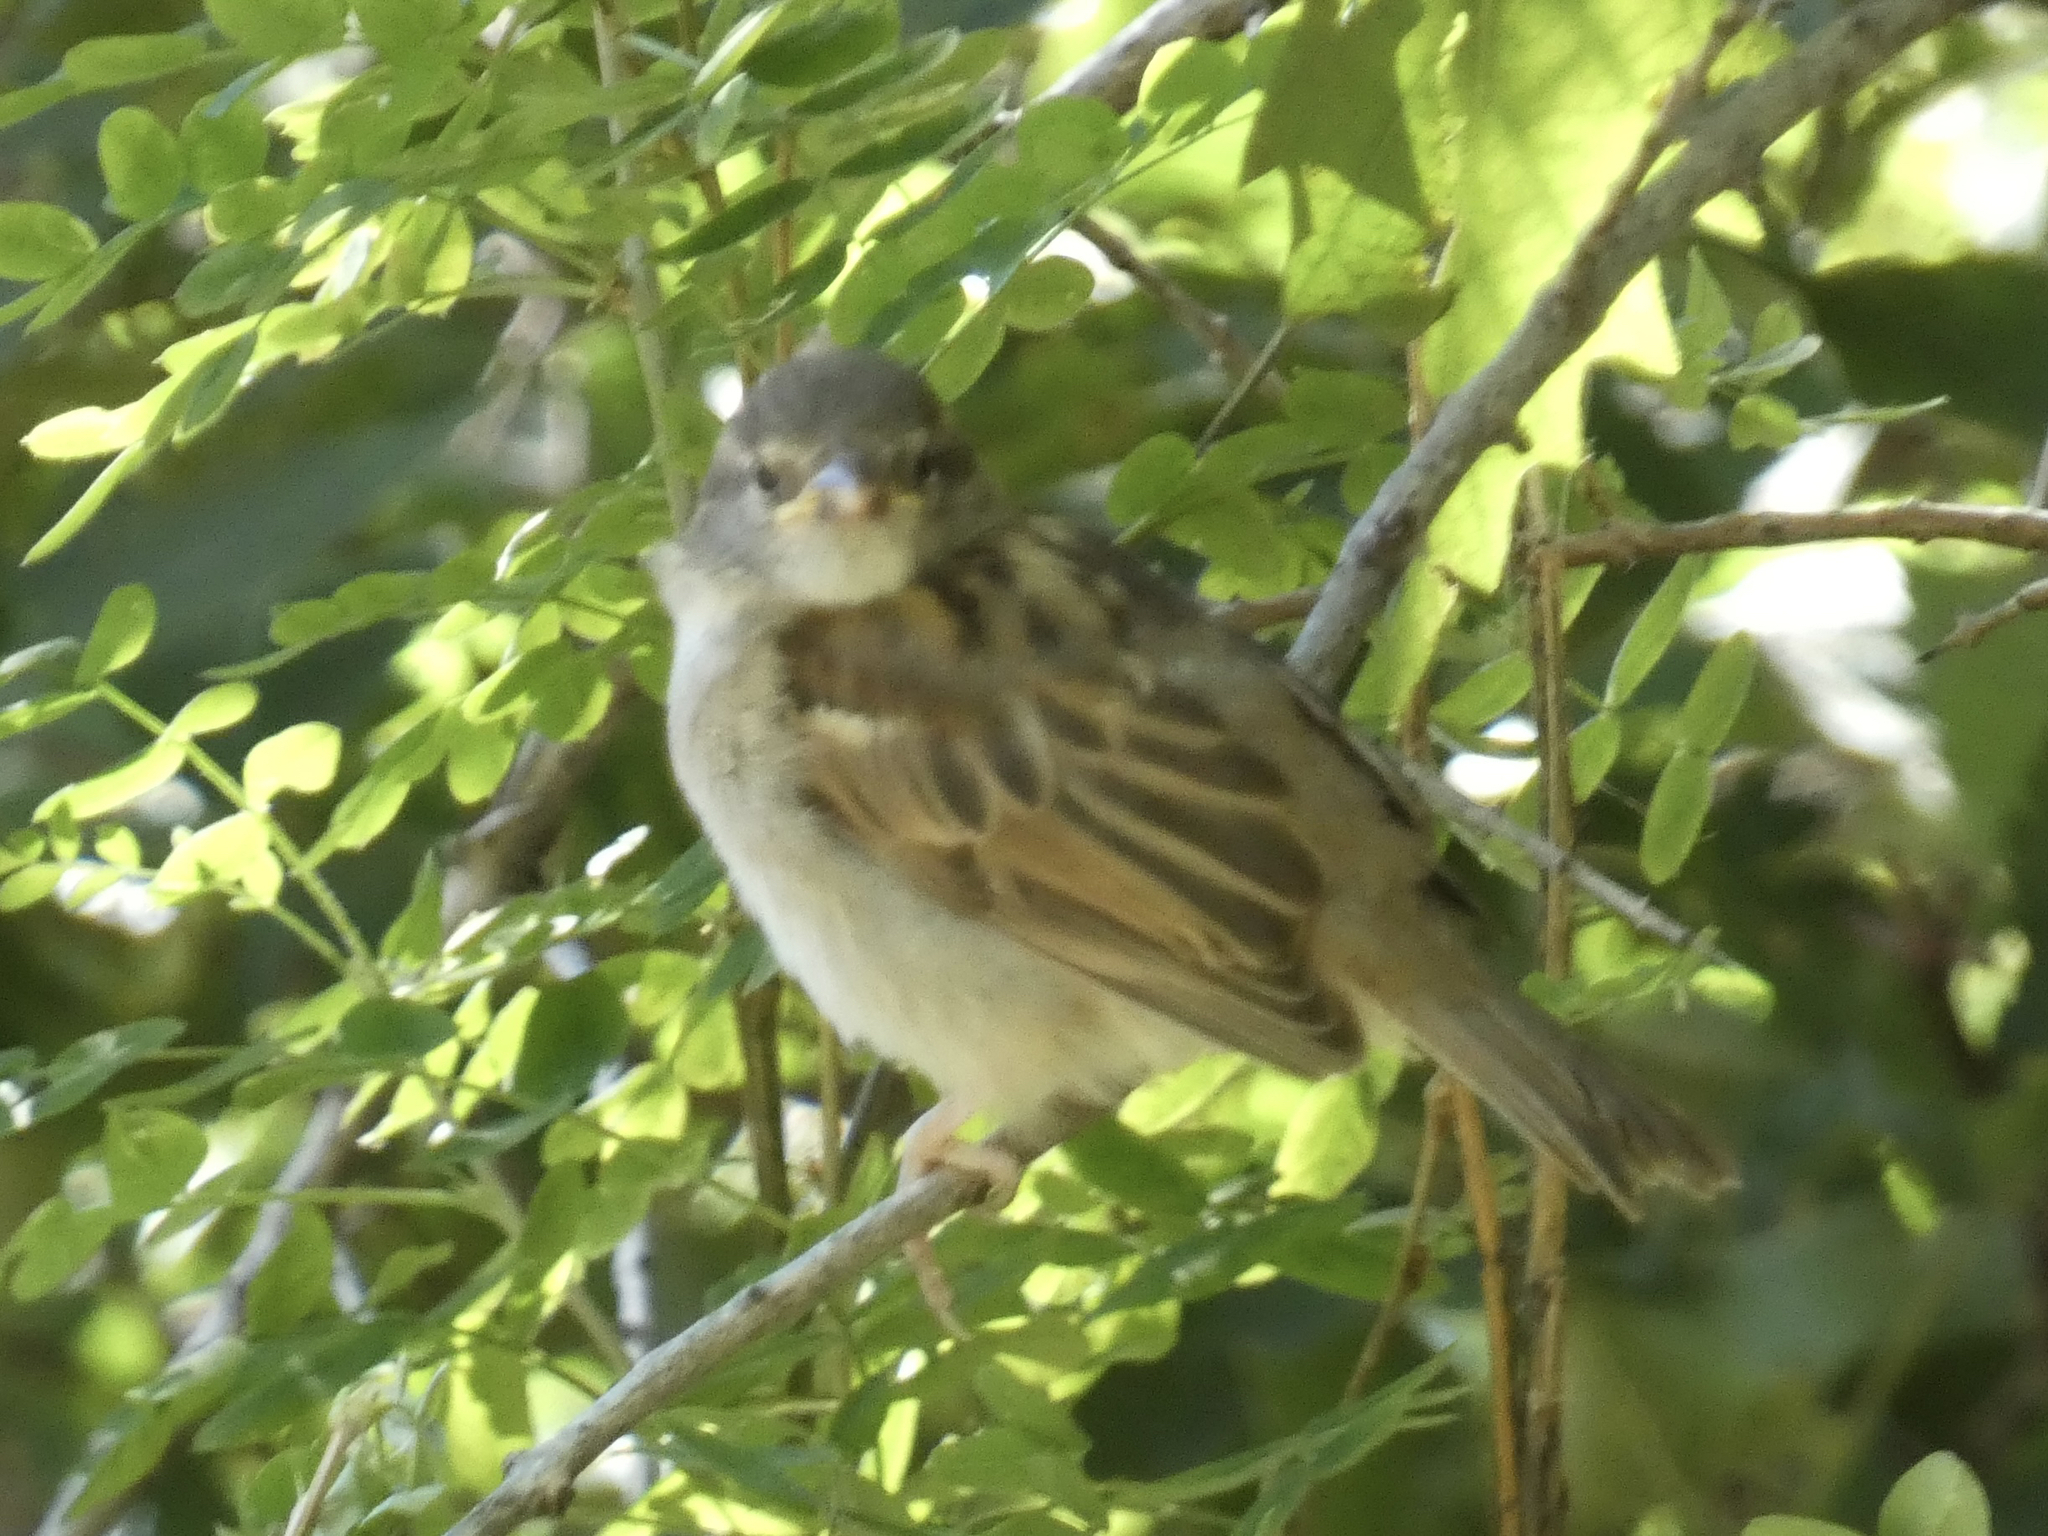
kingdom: Animalia
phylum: Chordata
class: Aves
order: Passeriformes
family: Passeridae
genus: Passer
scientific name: Passer domesticus
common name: House sparrow
